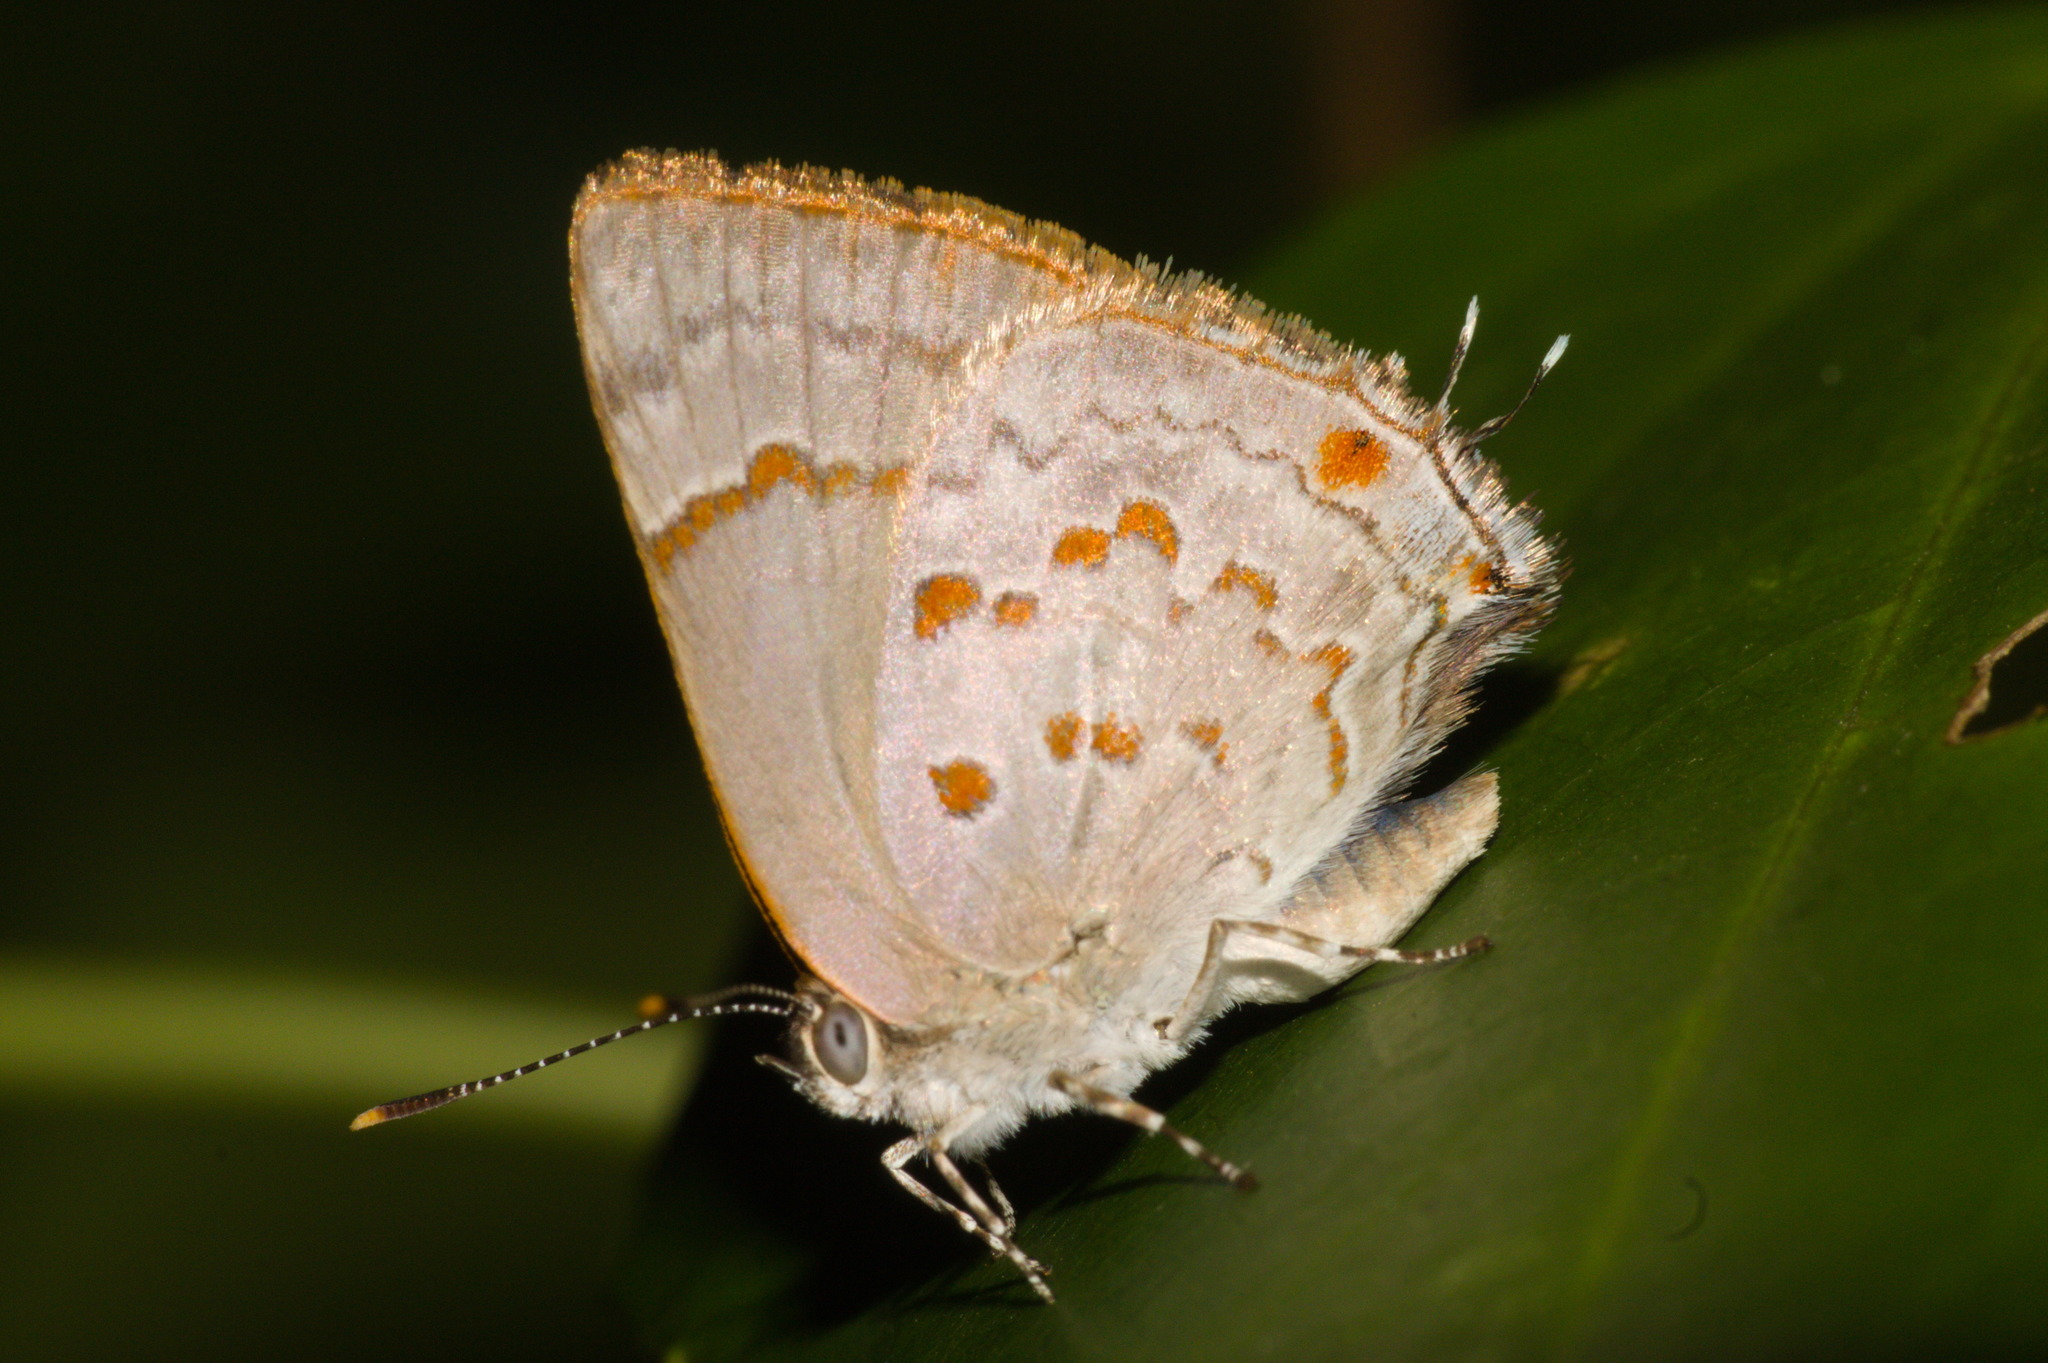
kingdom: Animalia
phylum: Arthropoda
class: Insecta
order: Lepidoptera
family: Lycaenidae
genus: Tmolus
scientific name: Tmolus echion
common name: Red-spotted hairstreak
